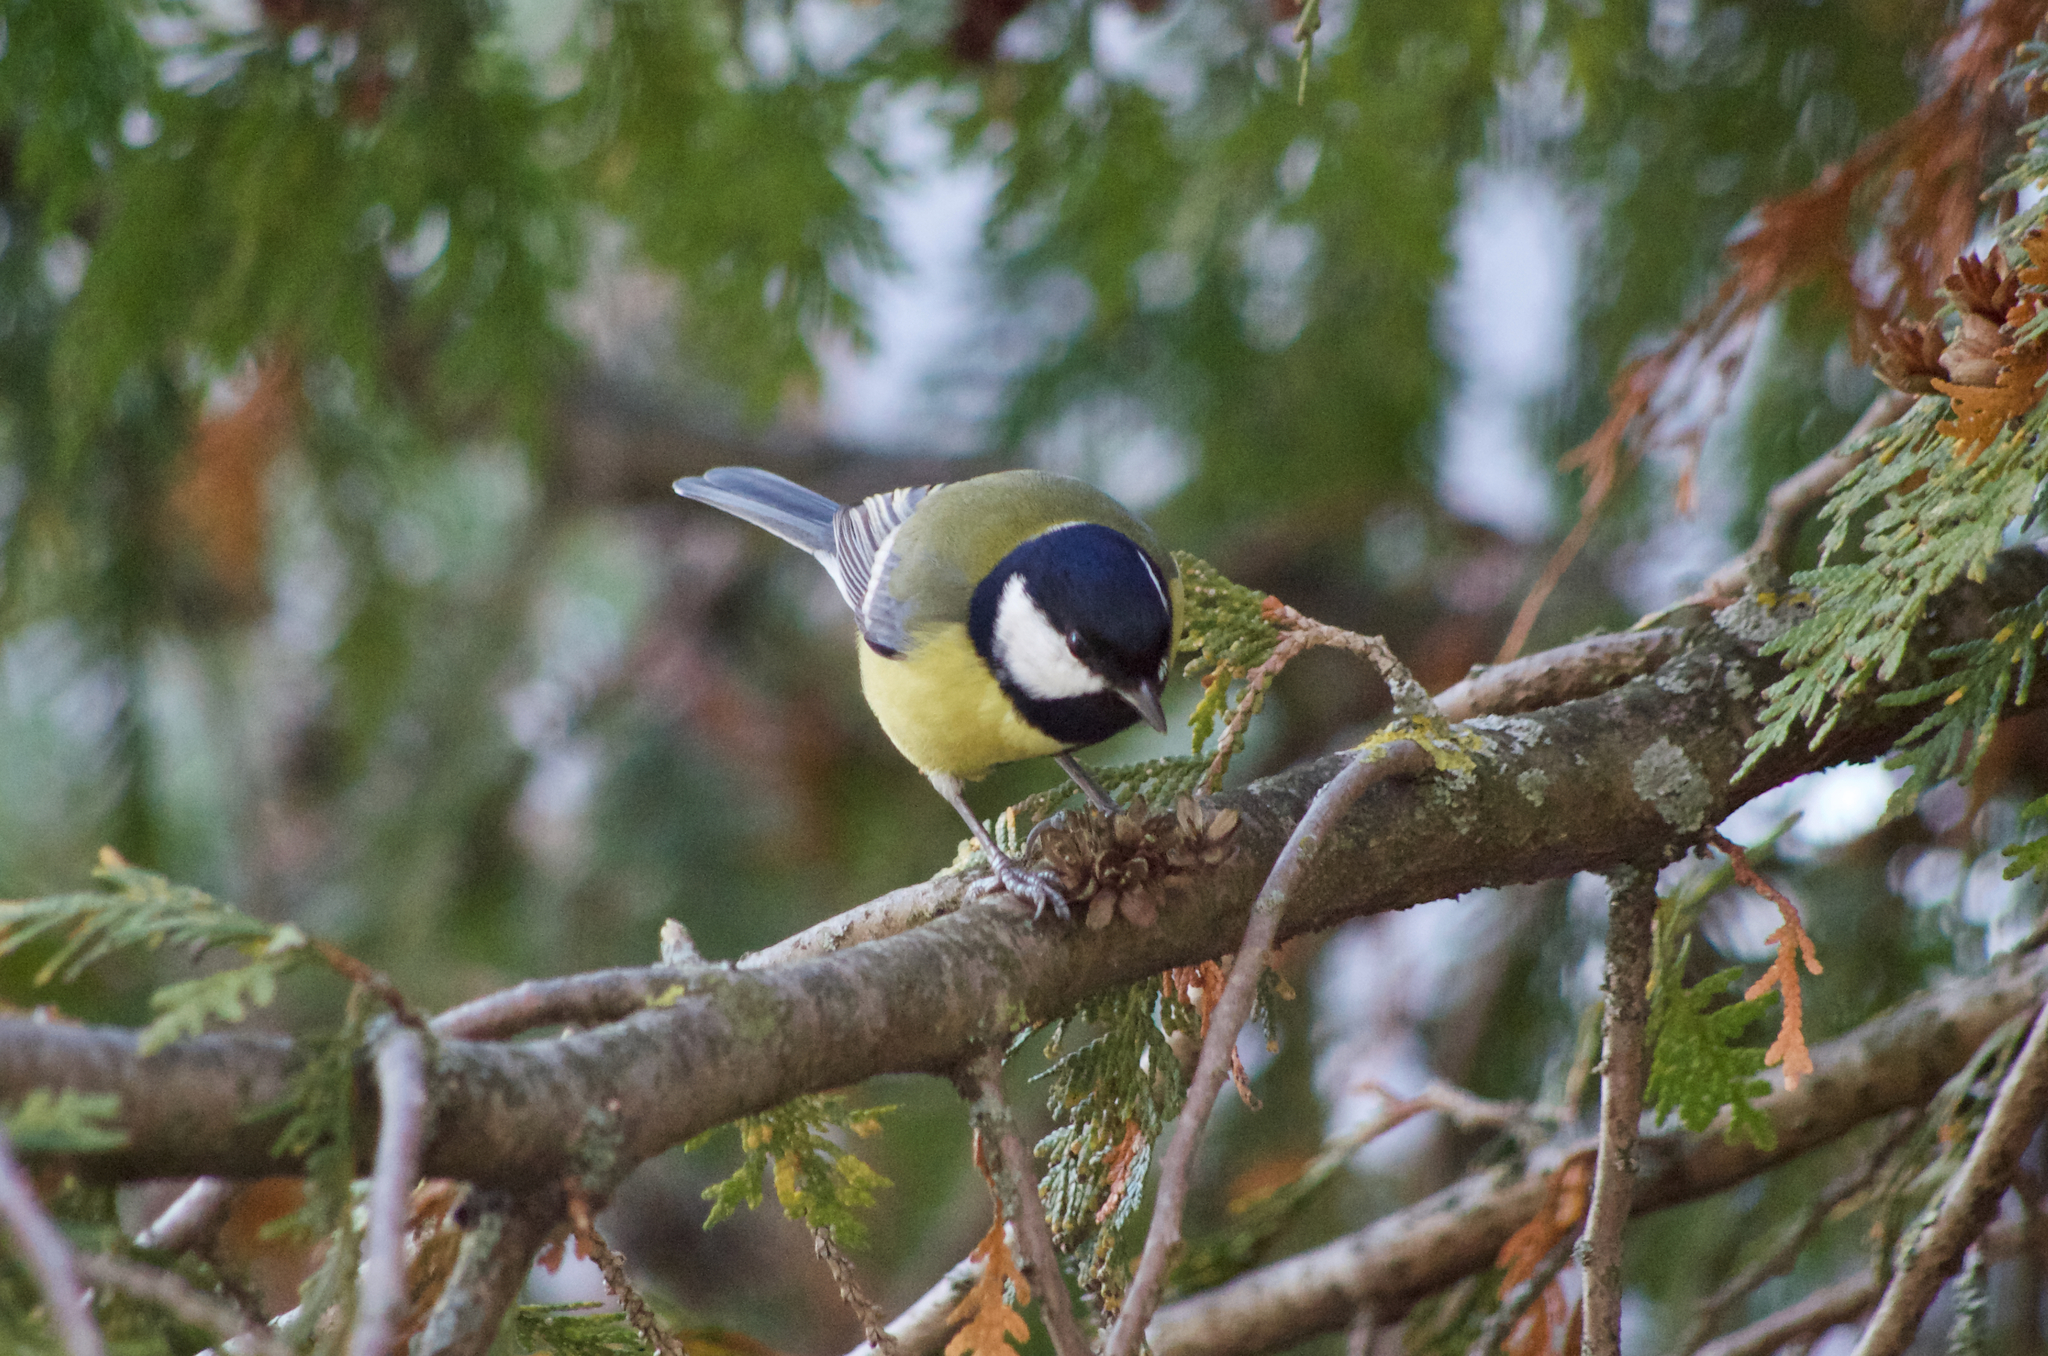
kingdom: Animalia
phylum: Chordata
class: Aves
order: Passeriformes
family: Paridae
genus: Parus
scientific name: Parus major
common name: Great tit
